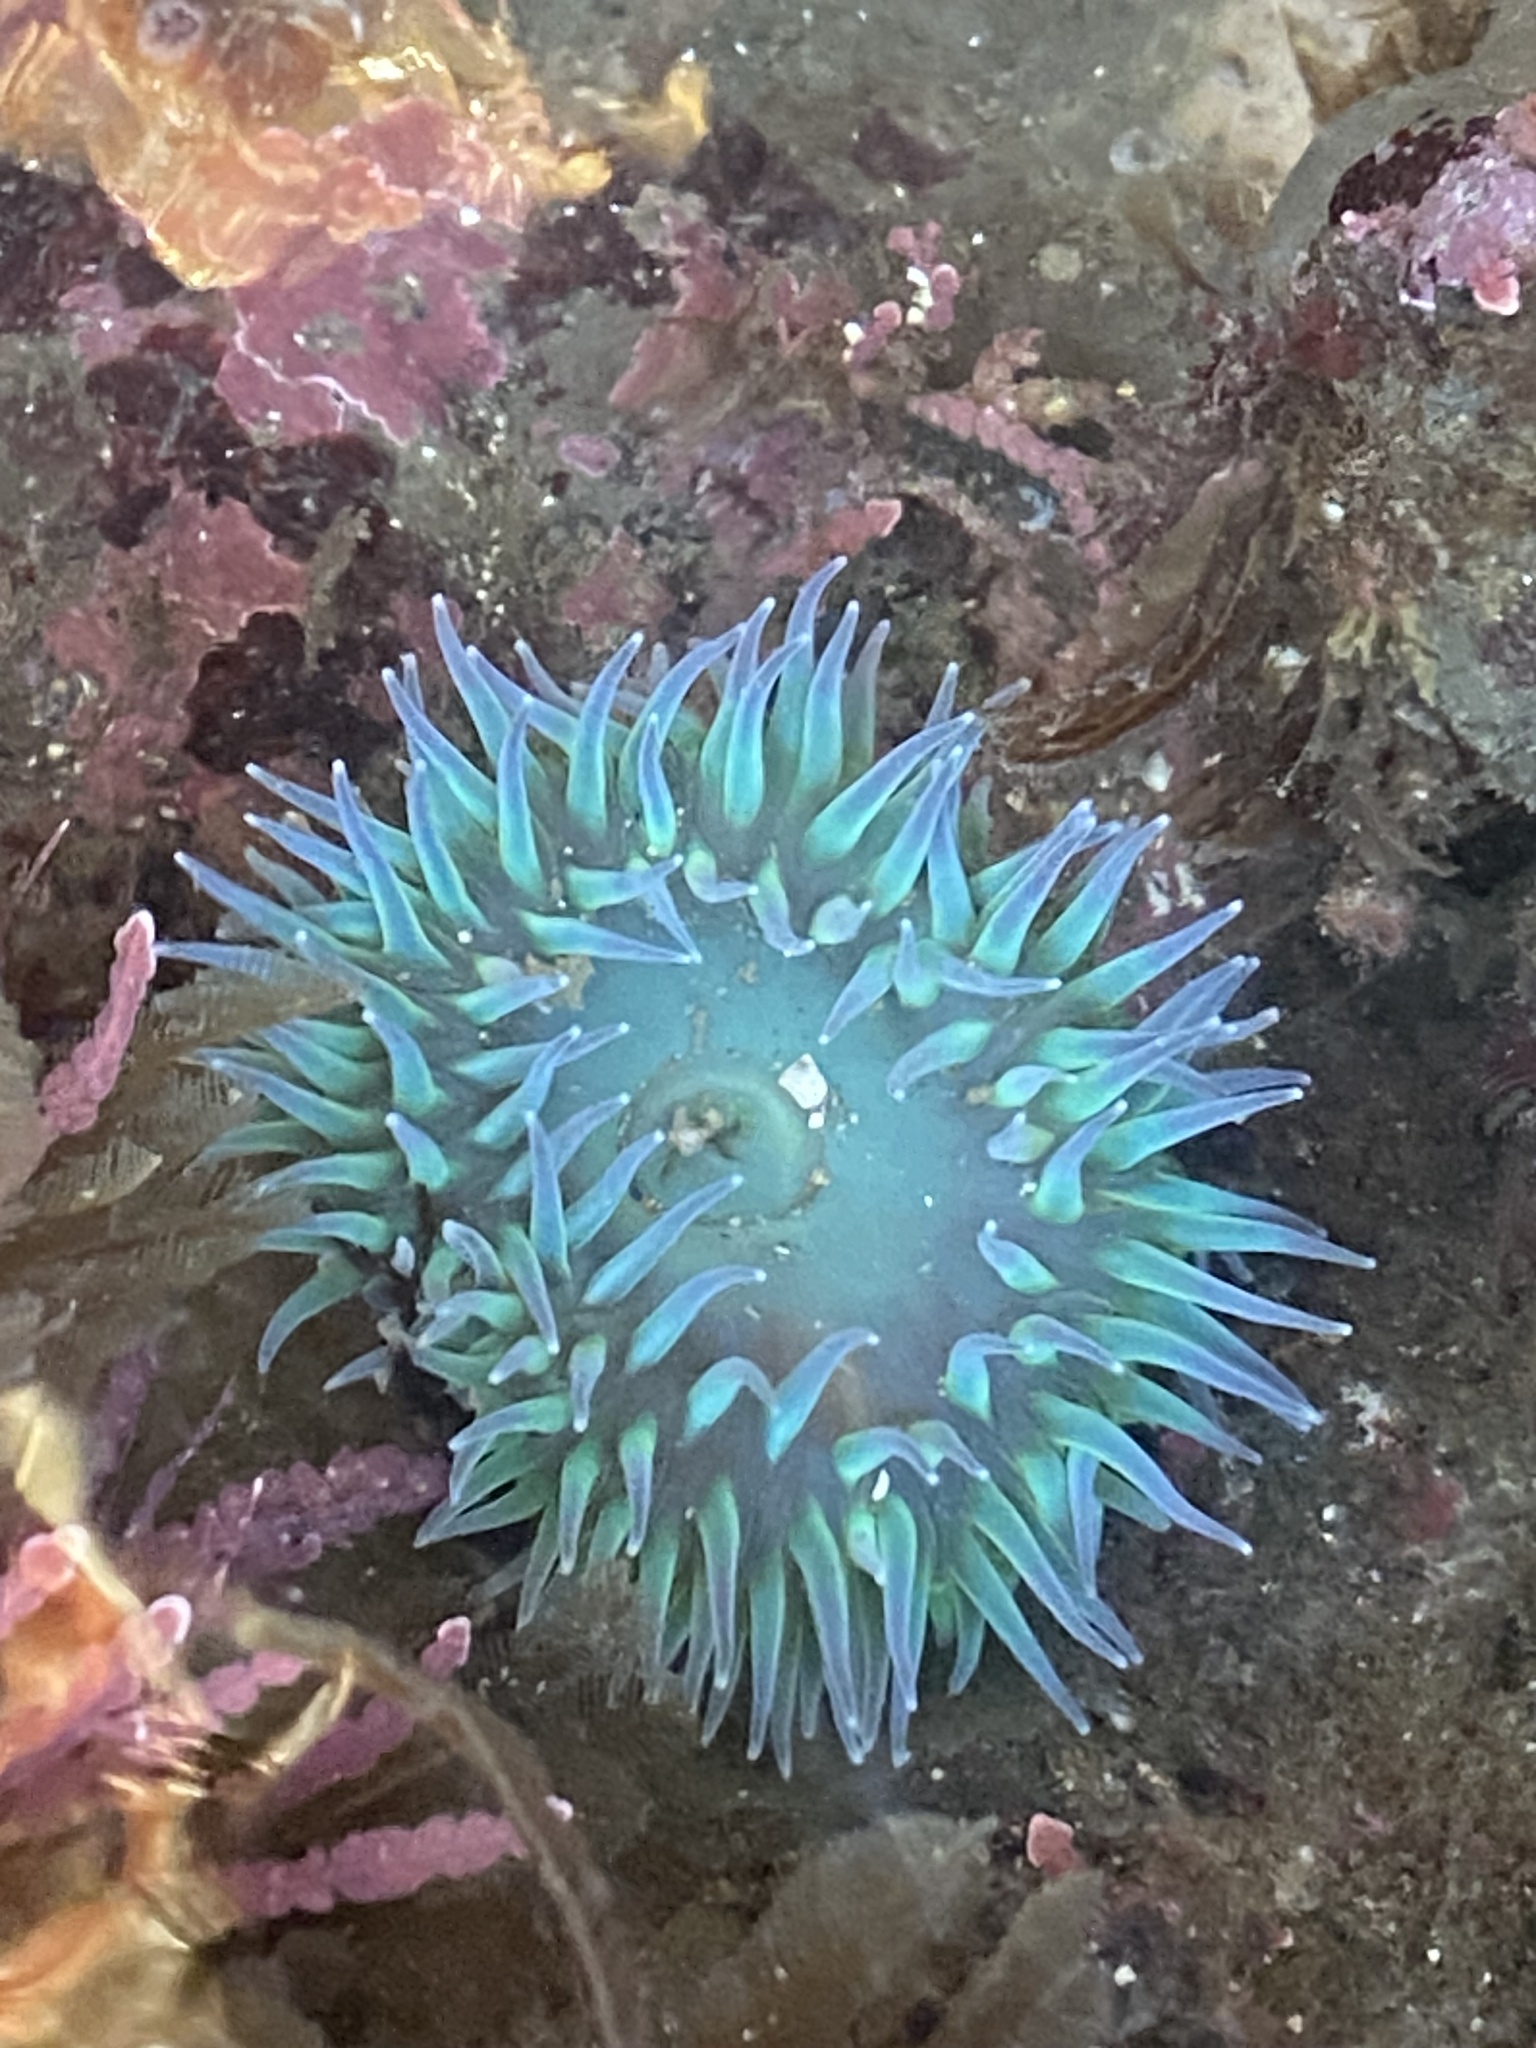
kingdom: Animalia
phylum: Cnidaria
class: Anthozoa
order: Actiniaria
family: Actiniidae
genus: Anthopleura
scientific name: Anthopleura xanthogrammica
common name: Giant green anemone
